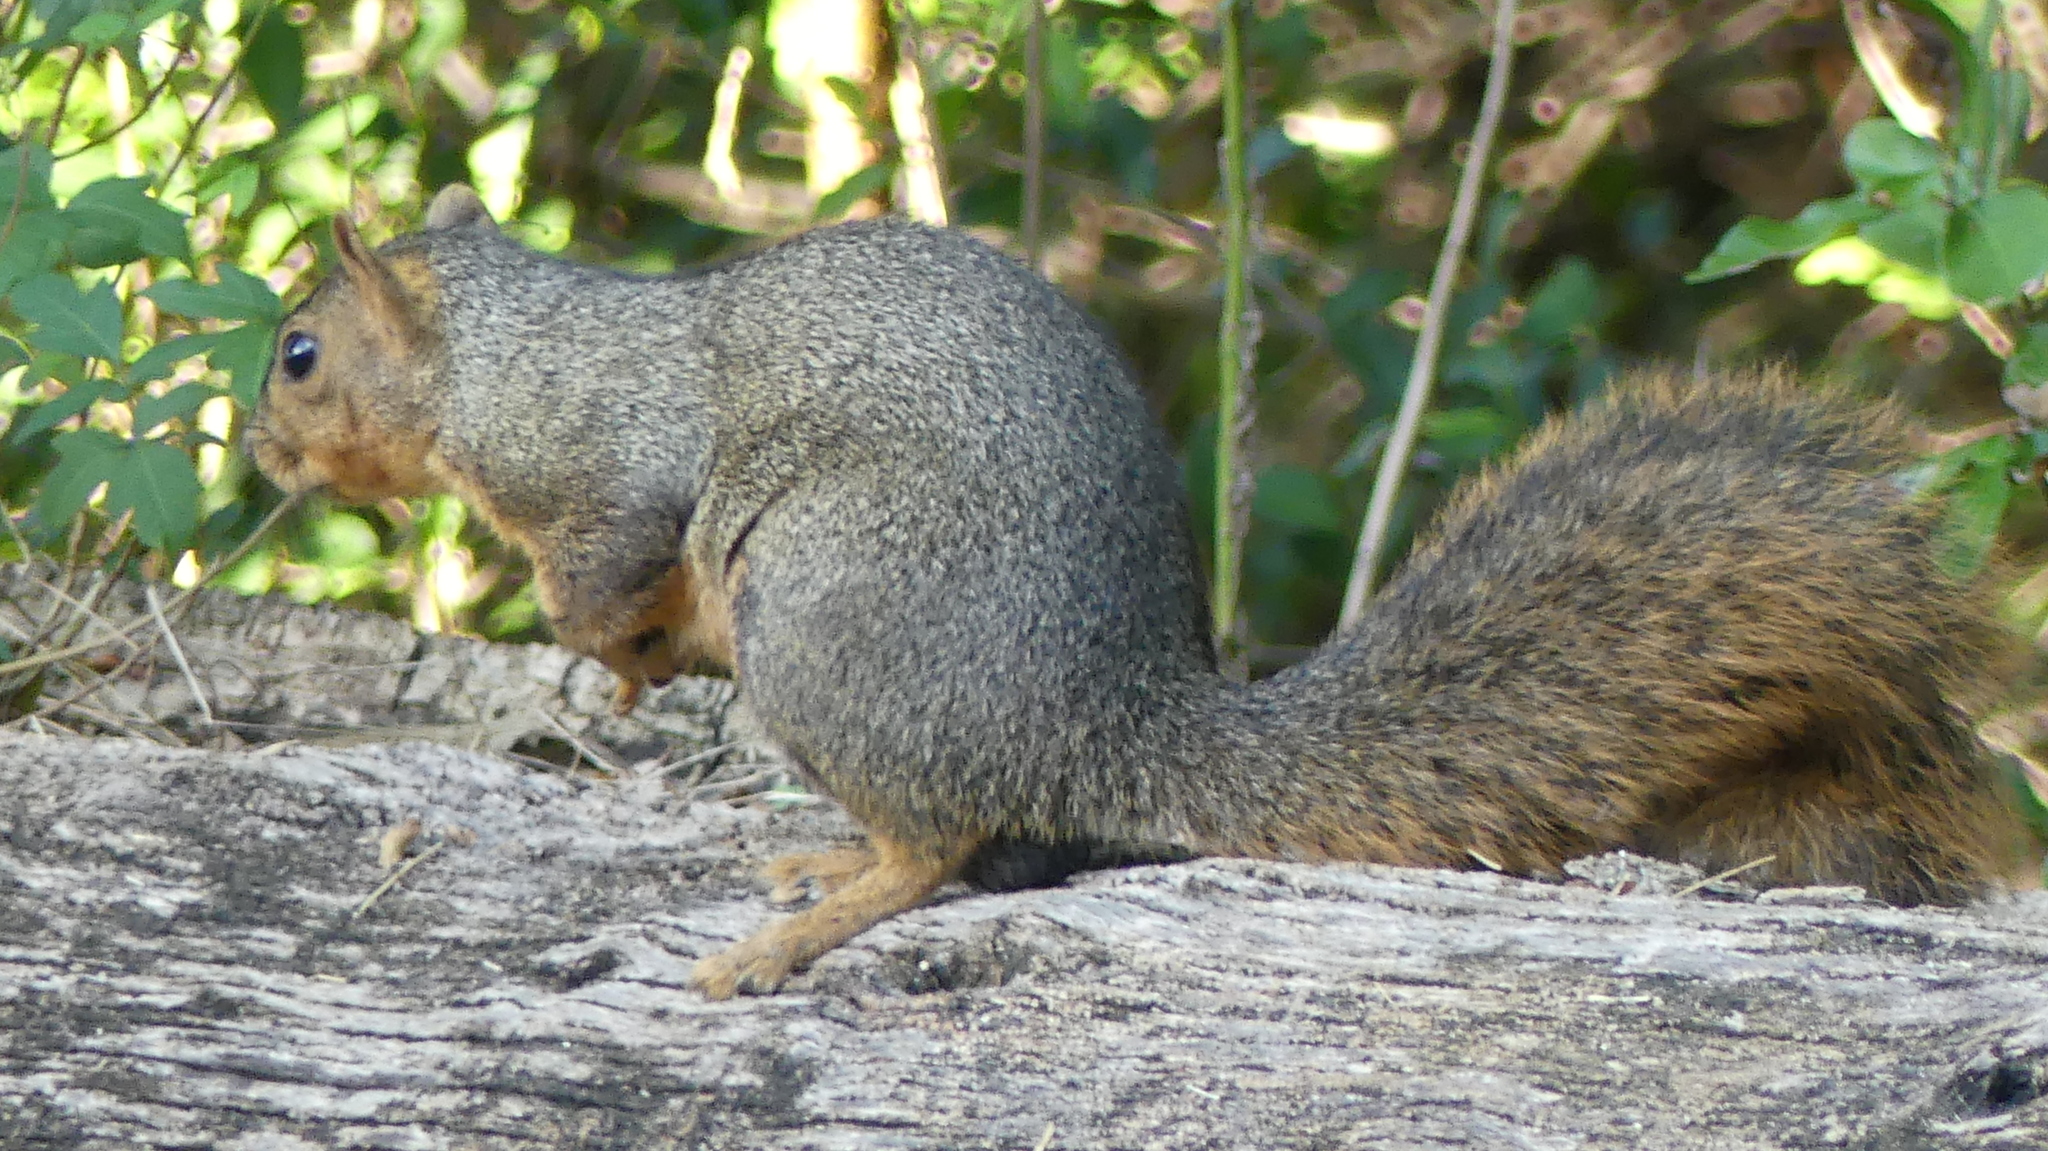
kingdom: Animalia
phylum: Chordata
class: Mammalia
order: Rodentia
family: Sciuridae
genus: Sciurus
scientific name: Sciurus niger
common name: Fox squirrel
